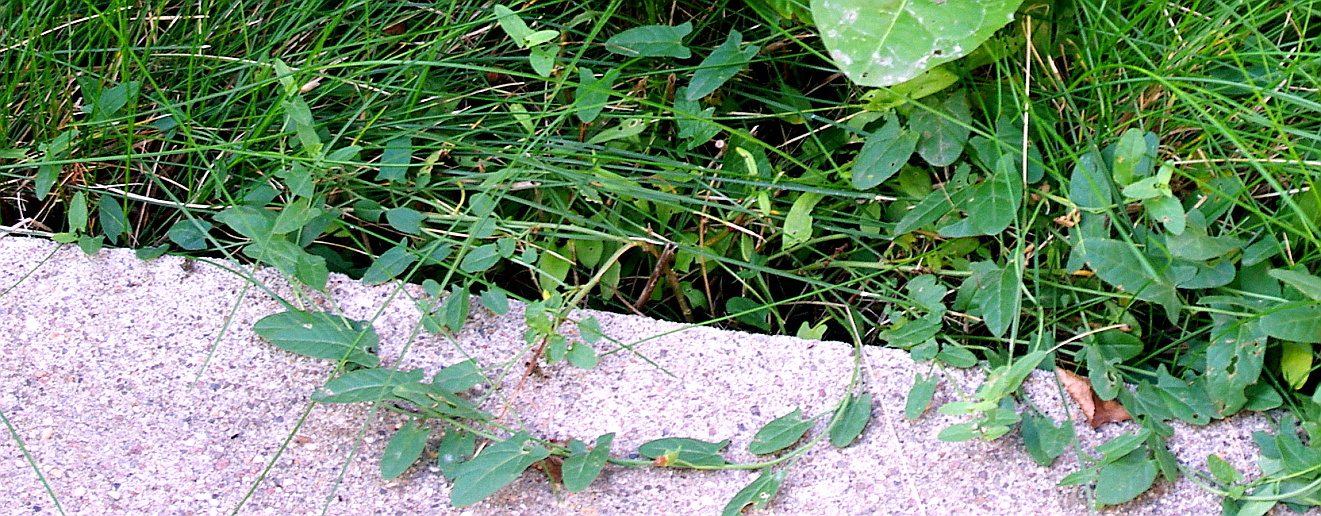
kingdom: Plantae
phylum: Tracheophyta
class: Magnoliopsida
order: Solanales
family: Convolvulaceae
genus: Convolvulus
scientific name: Convolvulus arvensis
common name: Field bindweed
